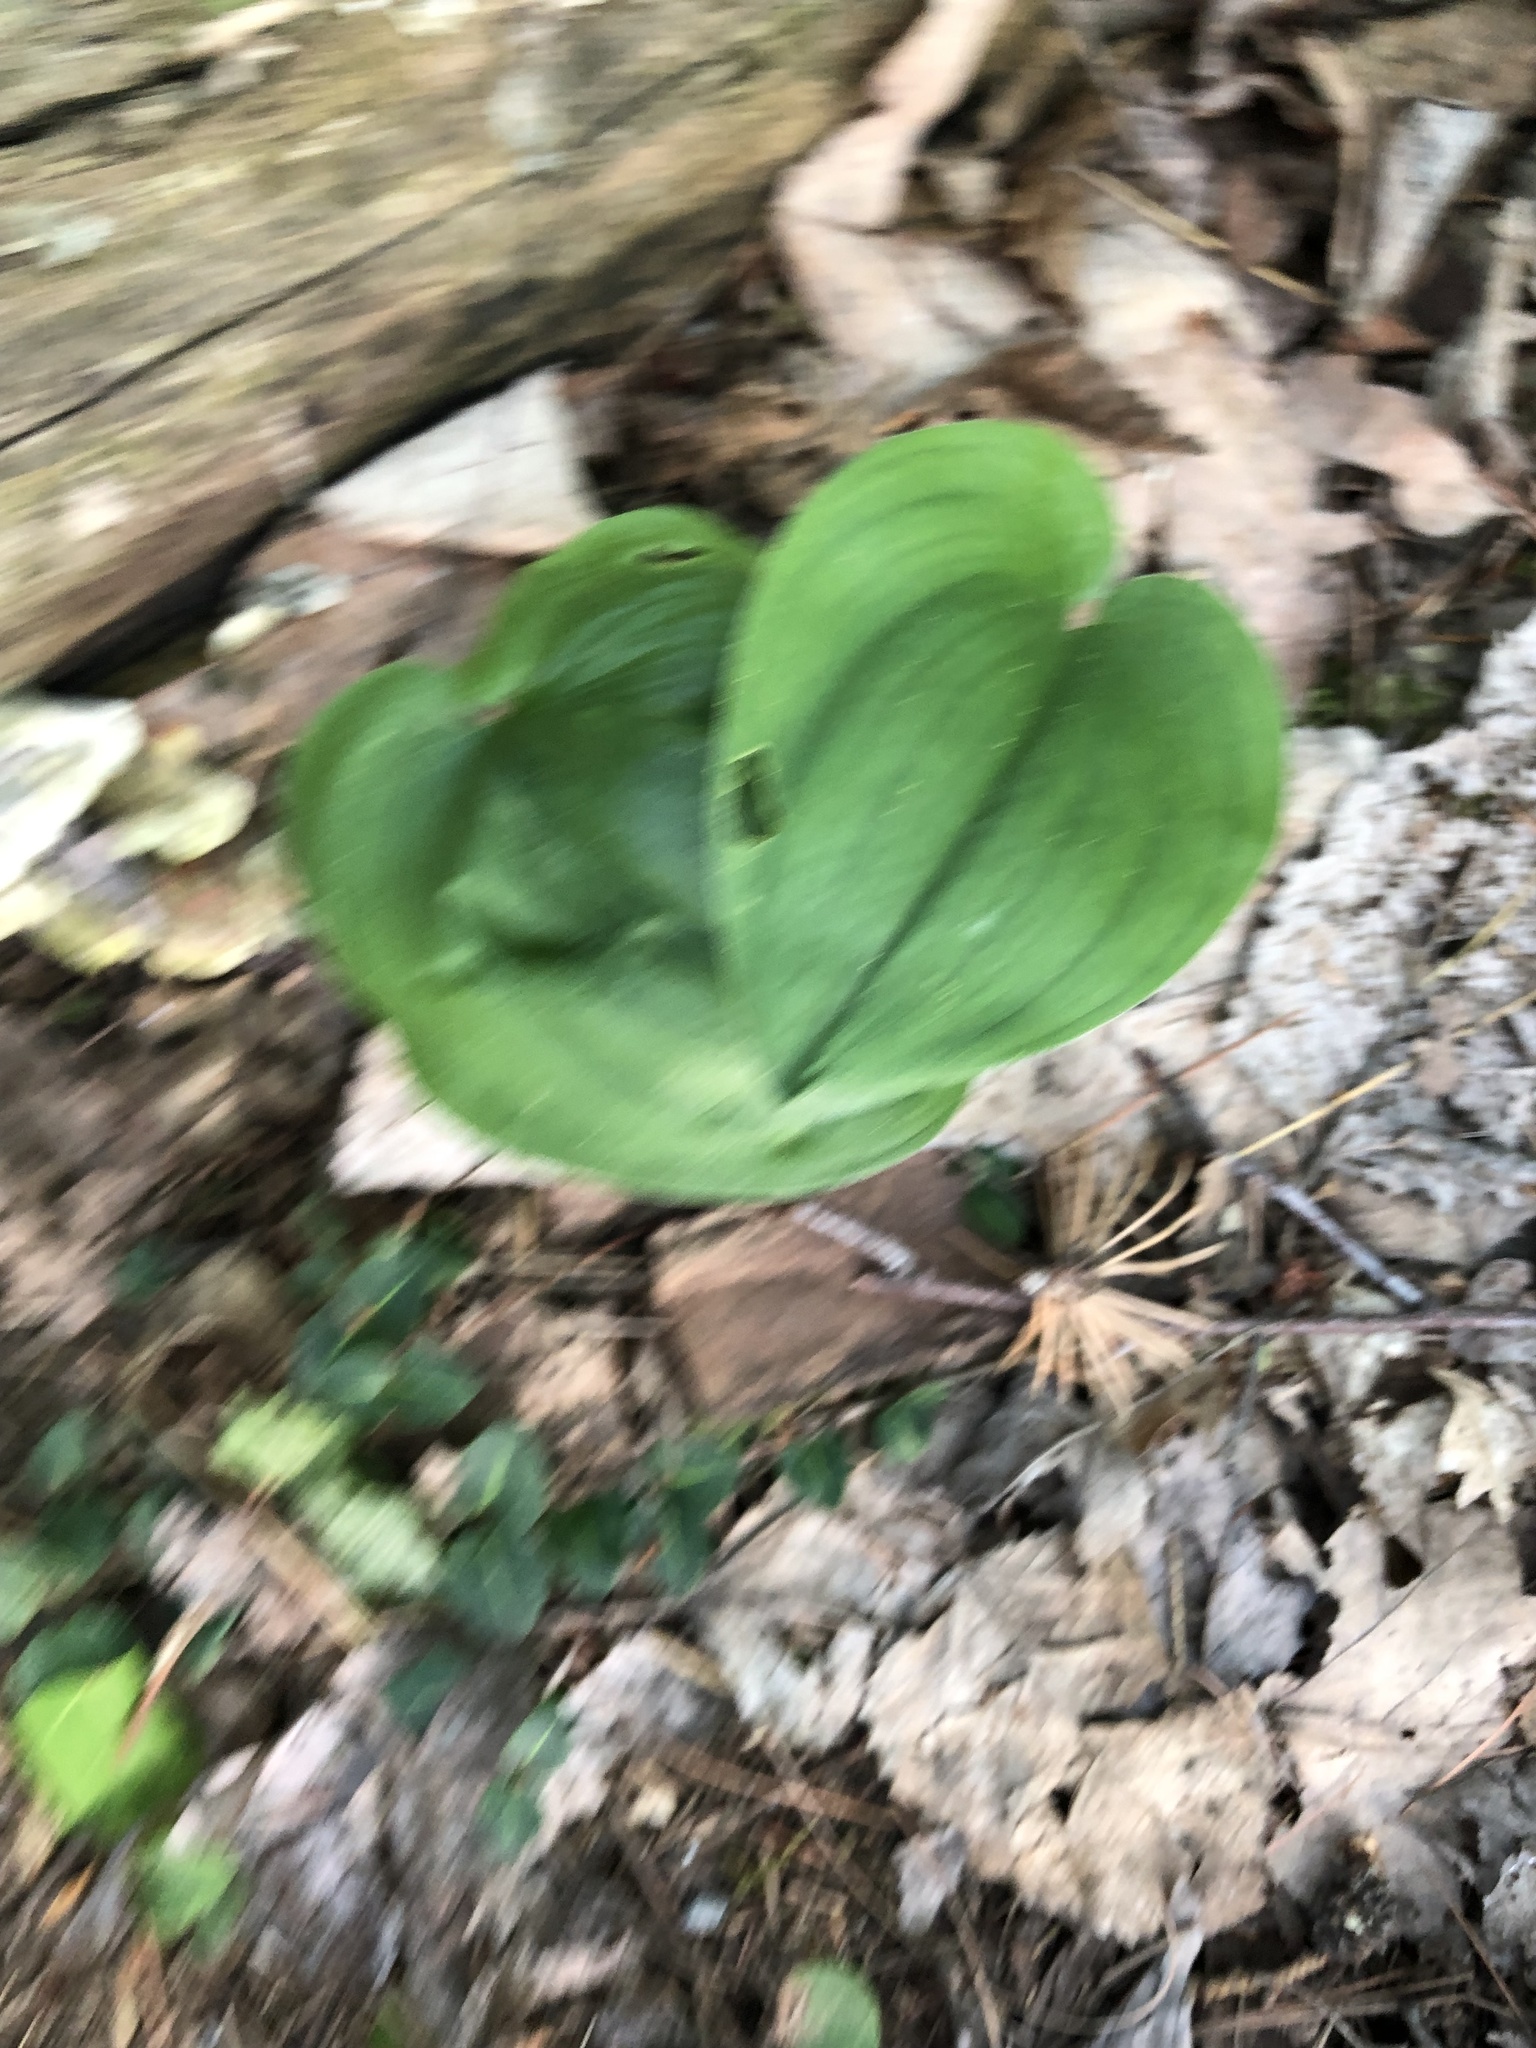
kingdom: Plantae
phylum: Tracheophyta
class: Liliopsida
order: Asparagales
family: Asparagaceae
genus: Maianthemum
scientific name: Maianthemum canadense
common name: False lily-of-the-valley
